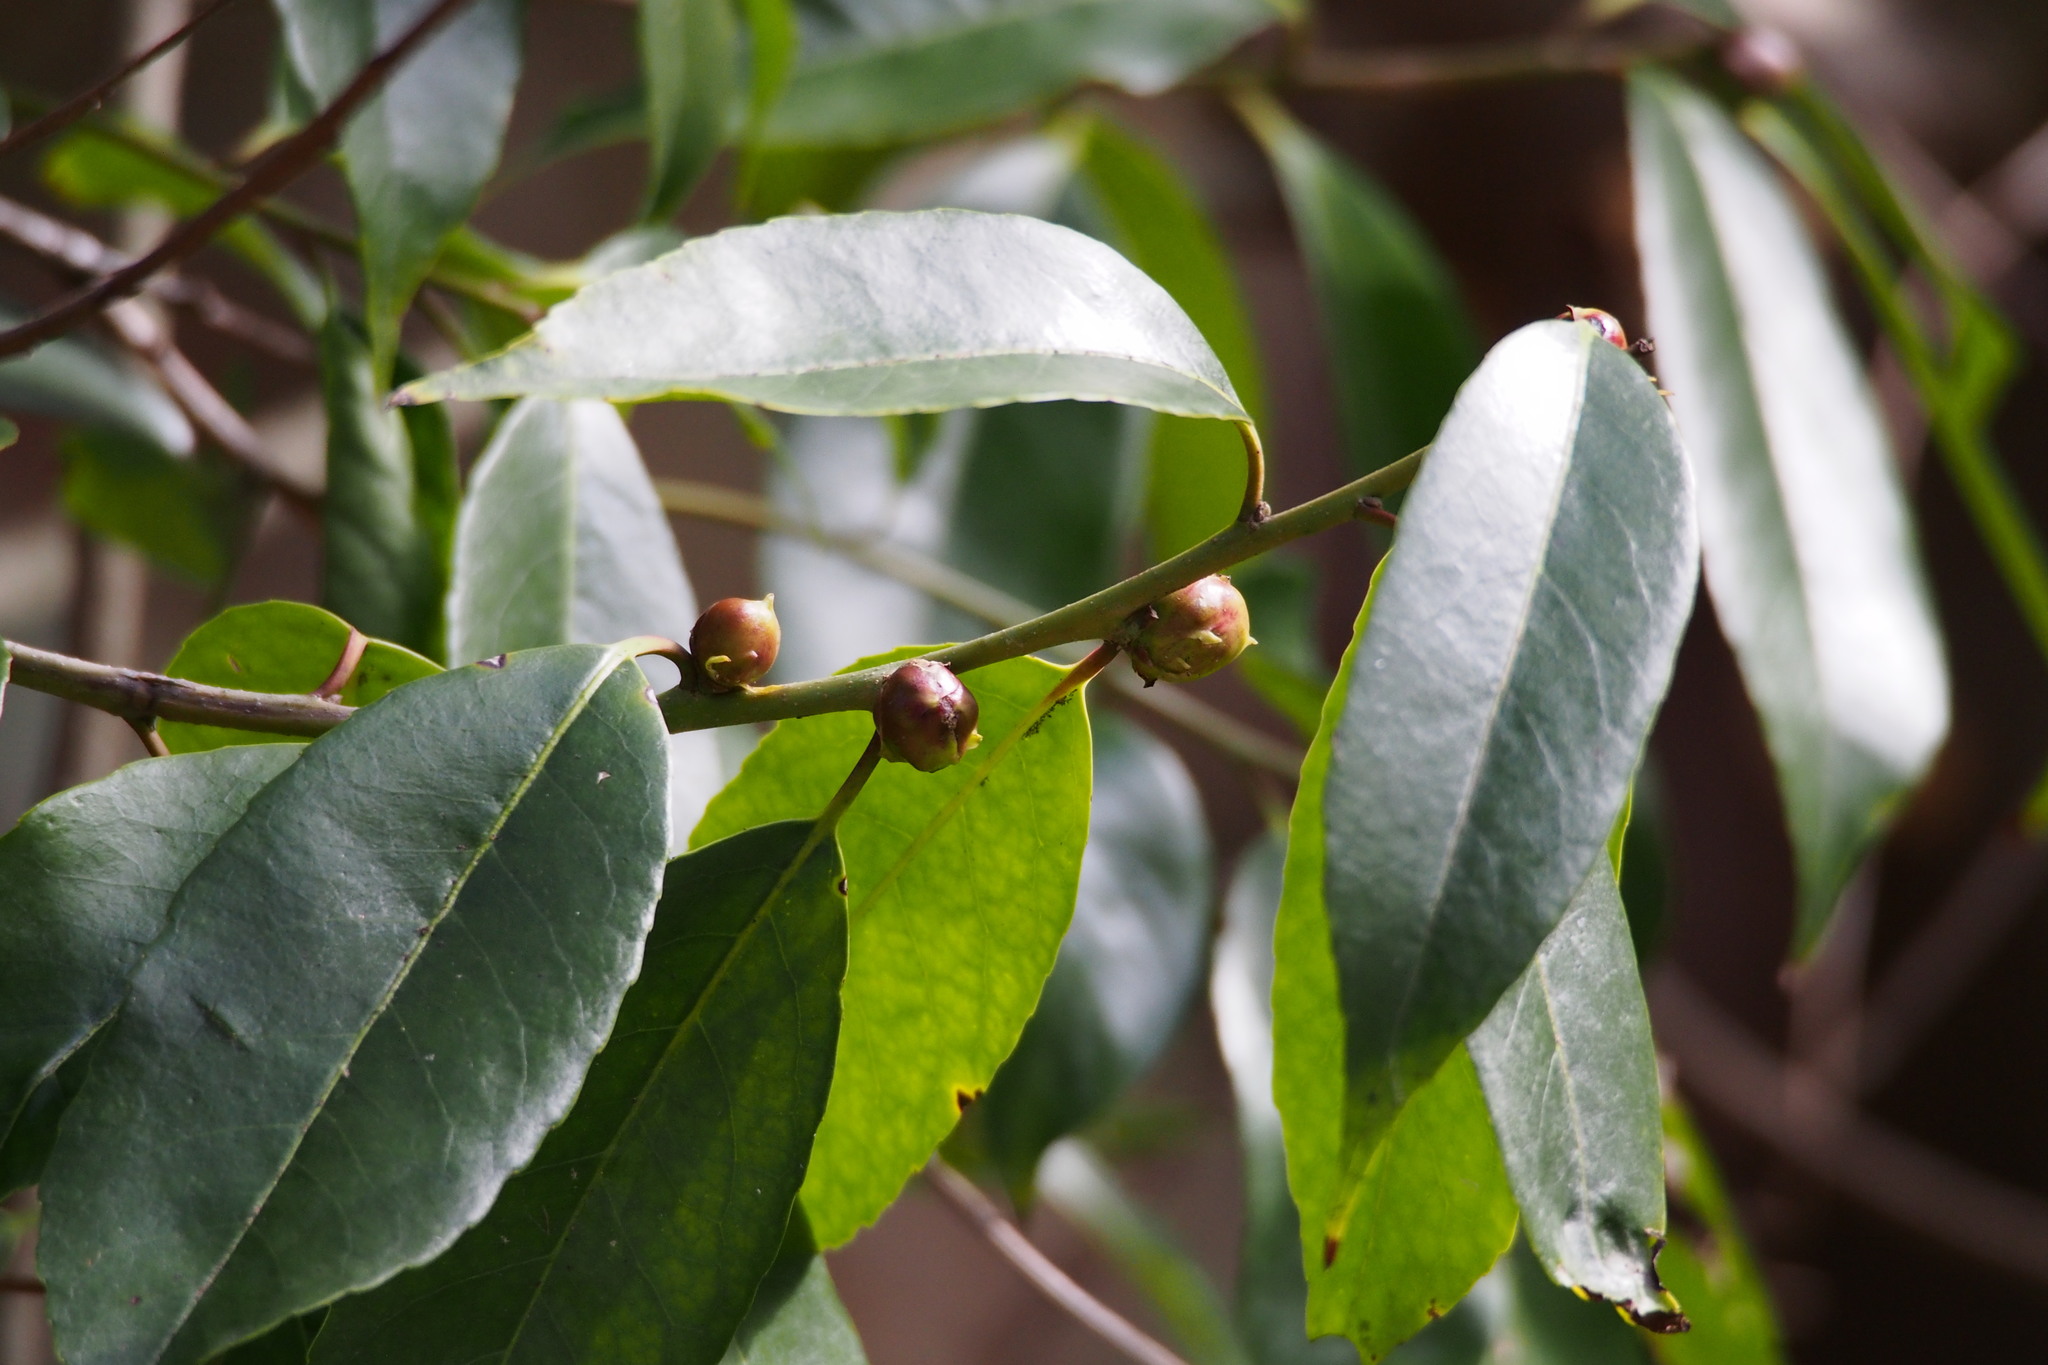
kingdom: Plantae
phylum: Tracheophyta
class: Magnoliopsida
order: Aquifoliales
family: Aquifoliaceae
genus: Ilex
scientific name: Ilex chinensis
